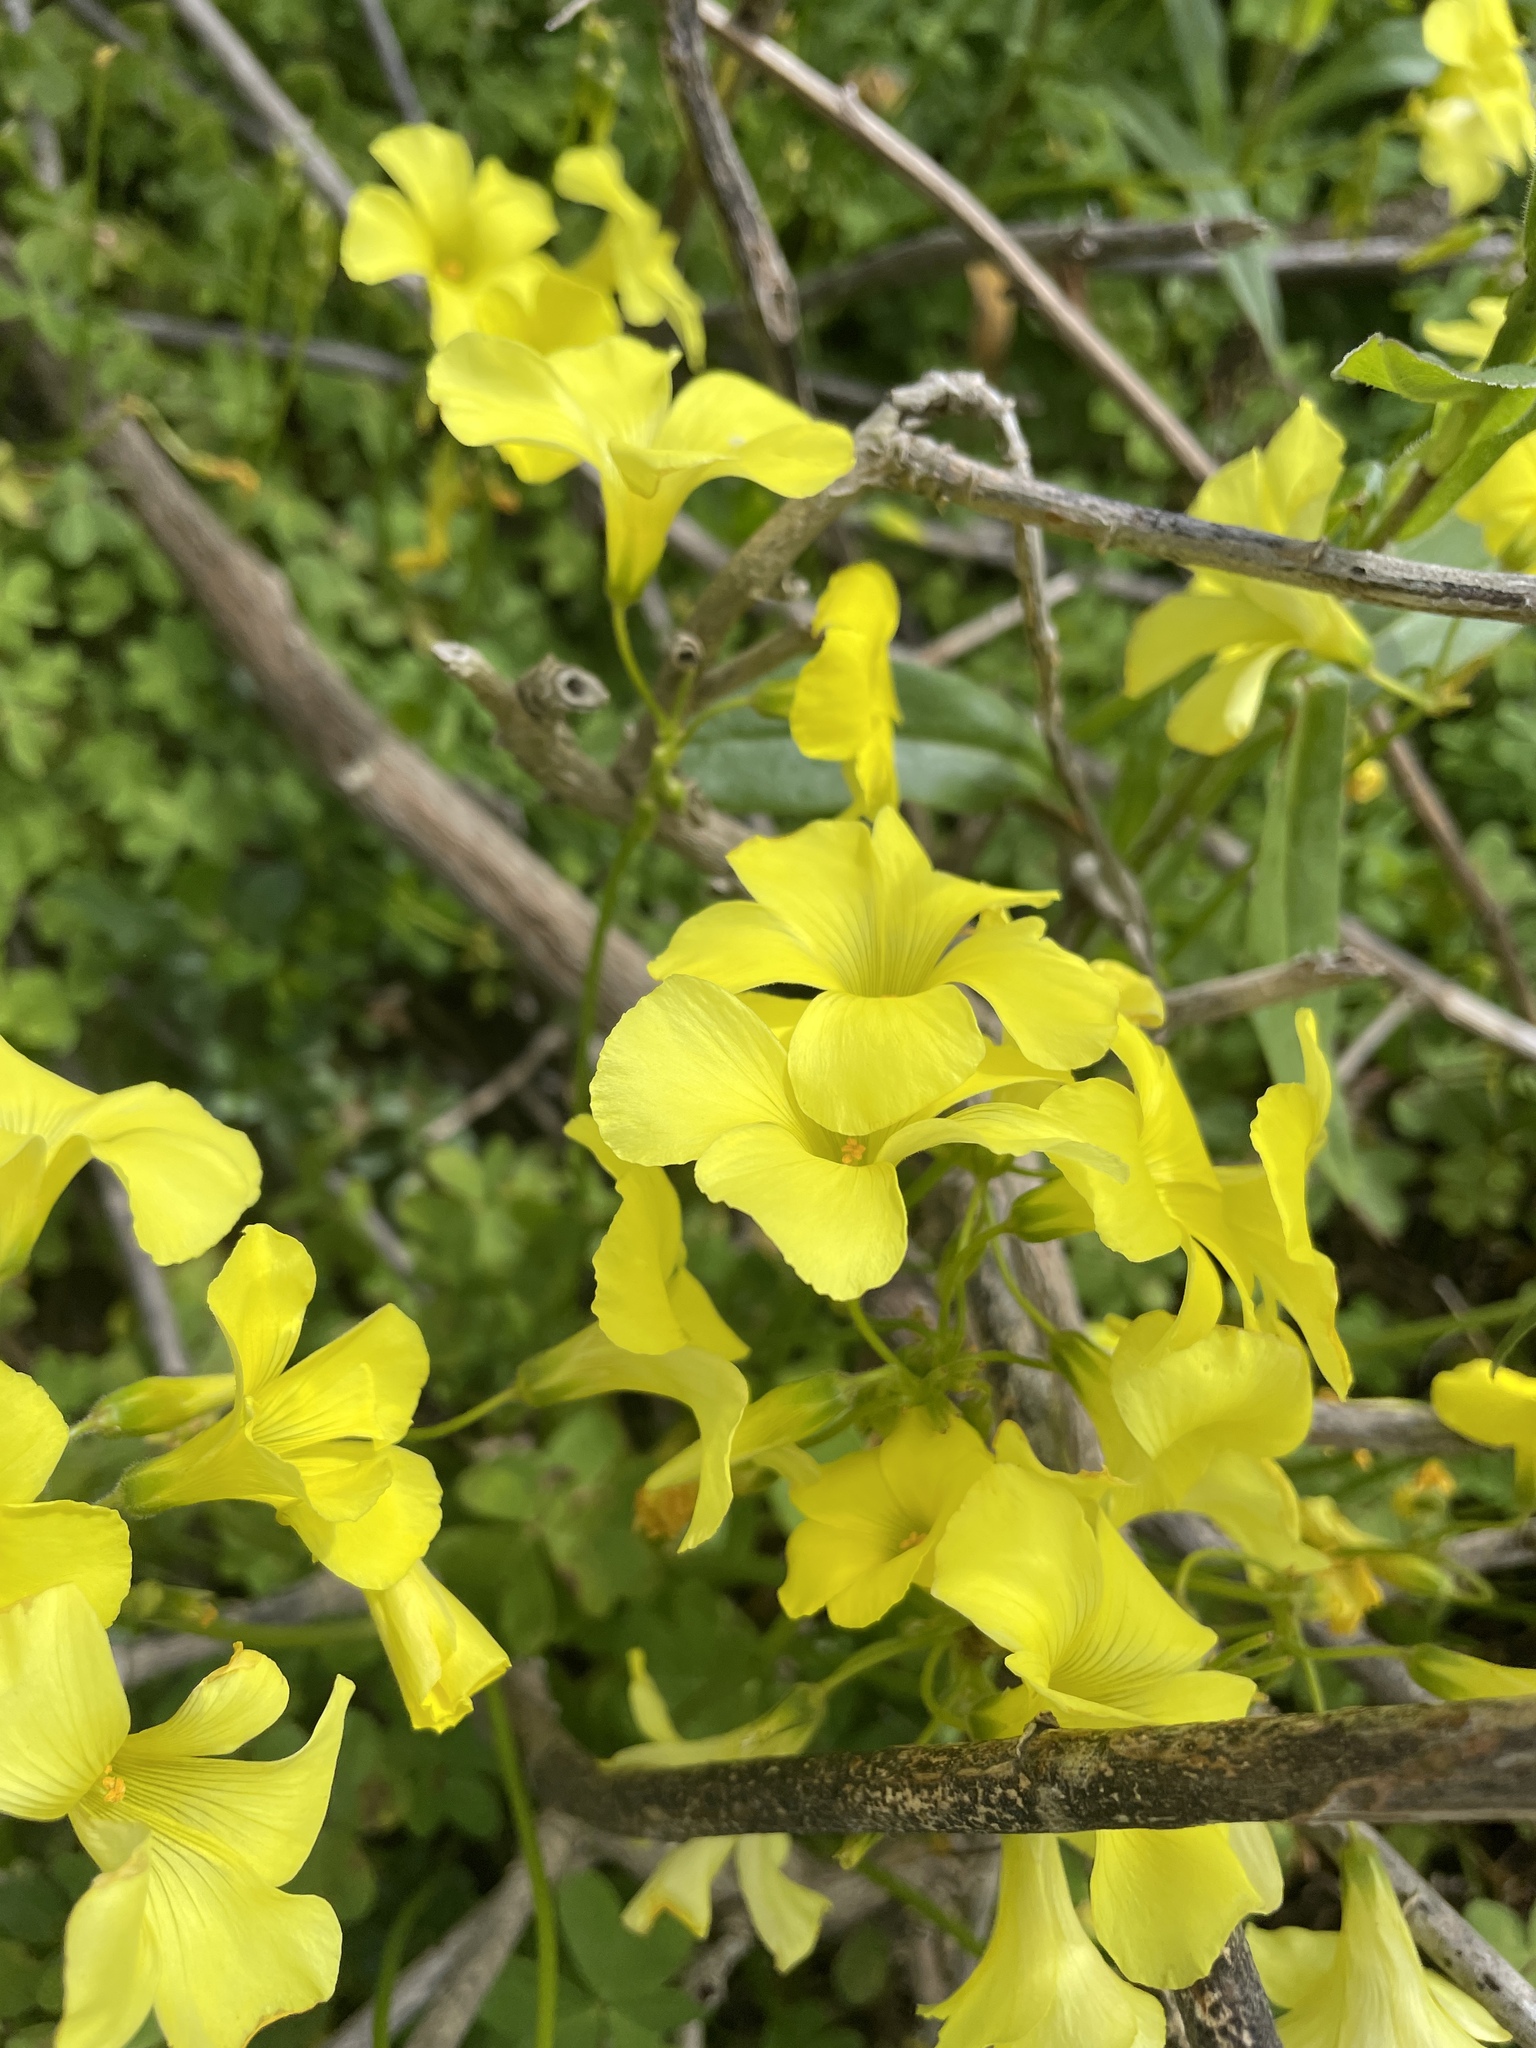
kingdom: Plantae
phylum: Tracheophyta
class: Magnoliopsida
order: Oxalidales
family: Oxalidaceae
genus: Oxalis
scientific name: Oxalis pes-caprae
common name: Bermuda-buttercup
